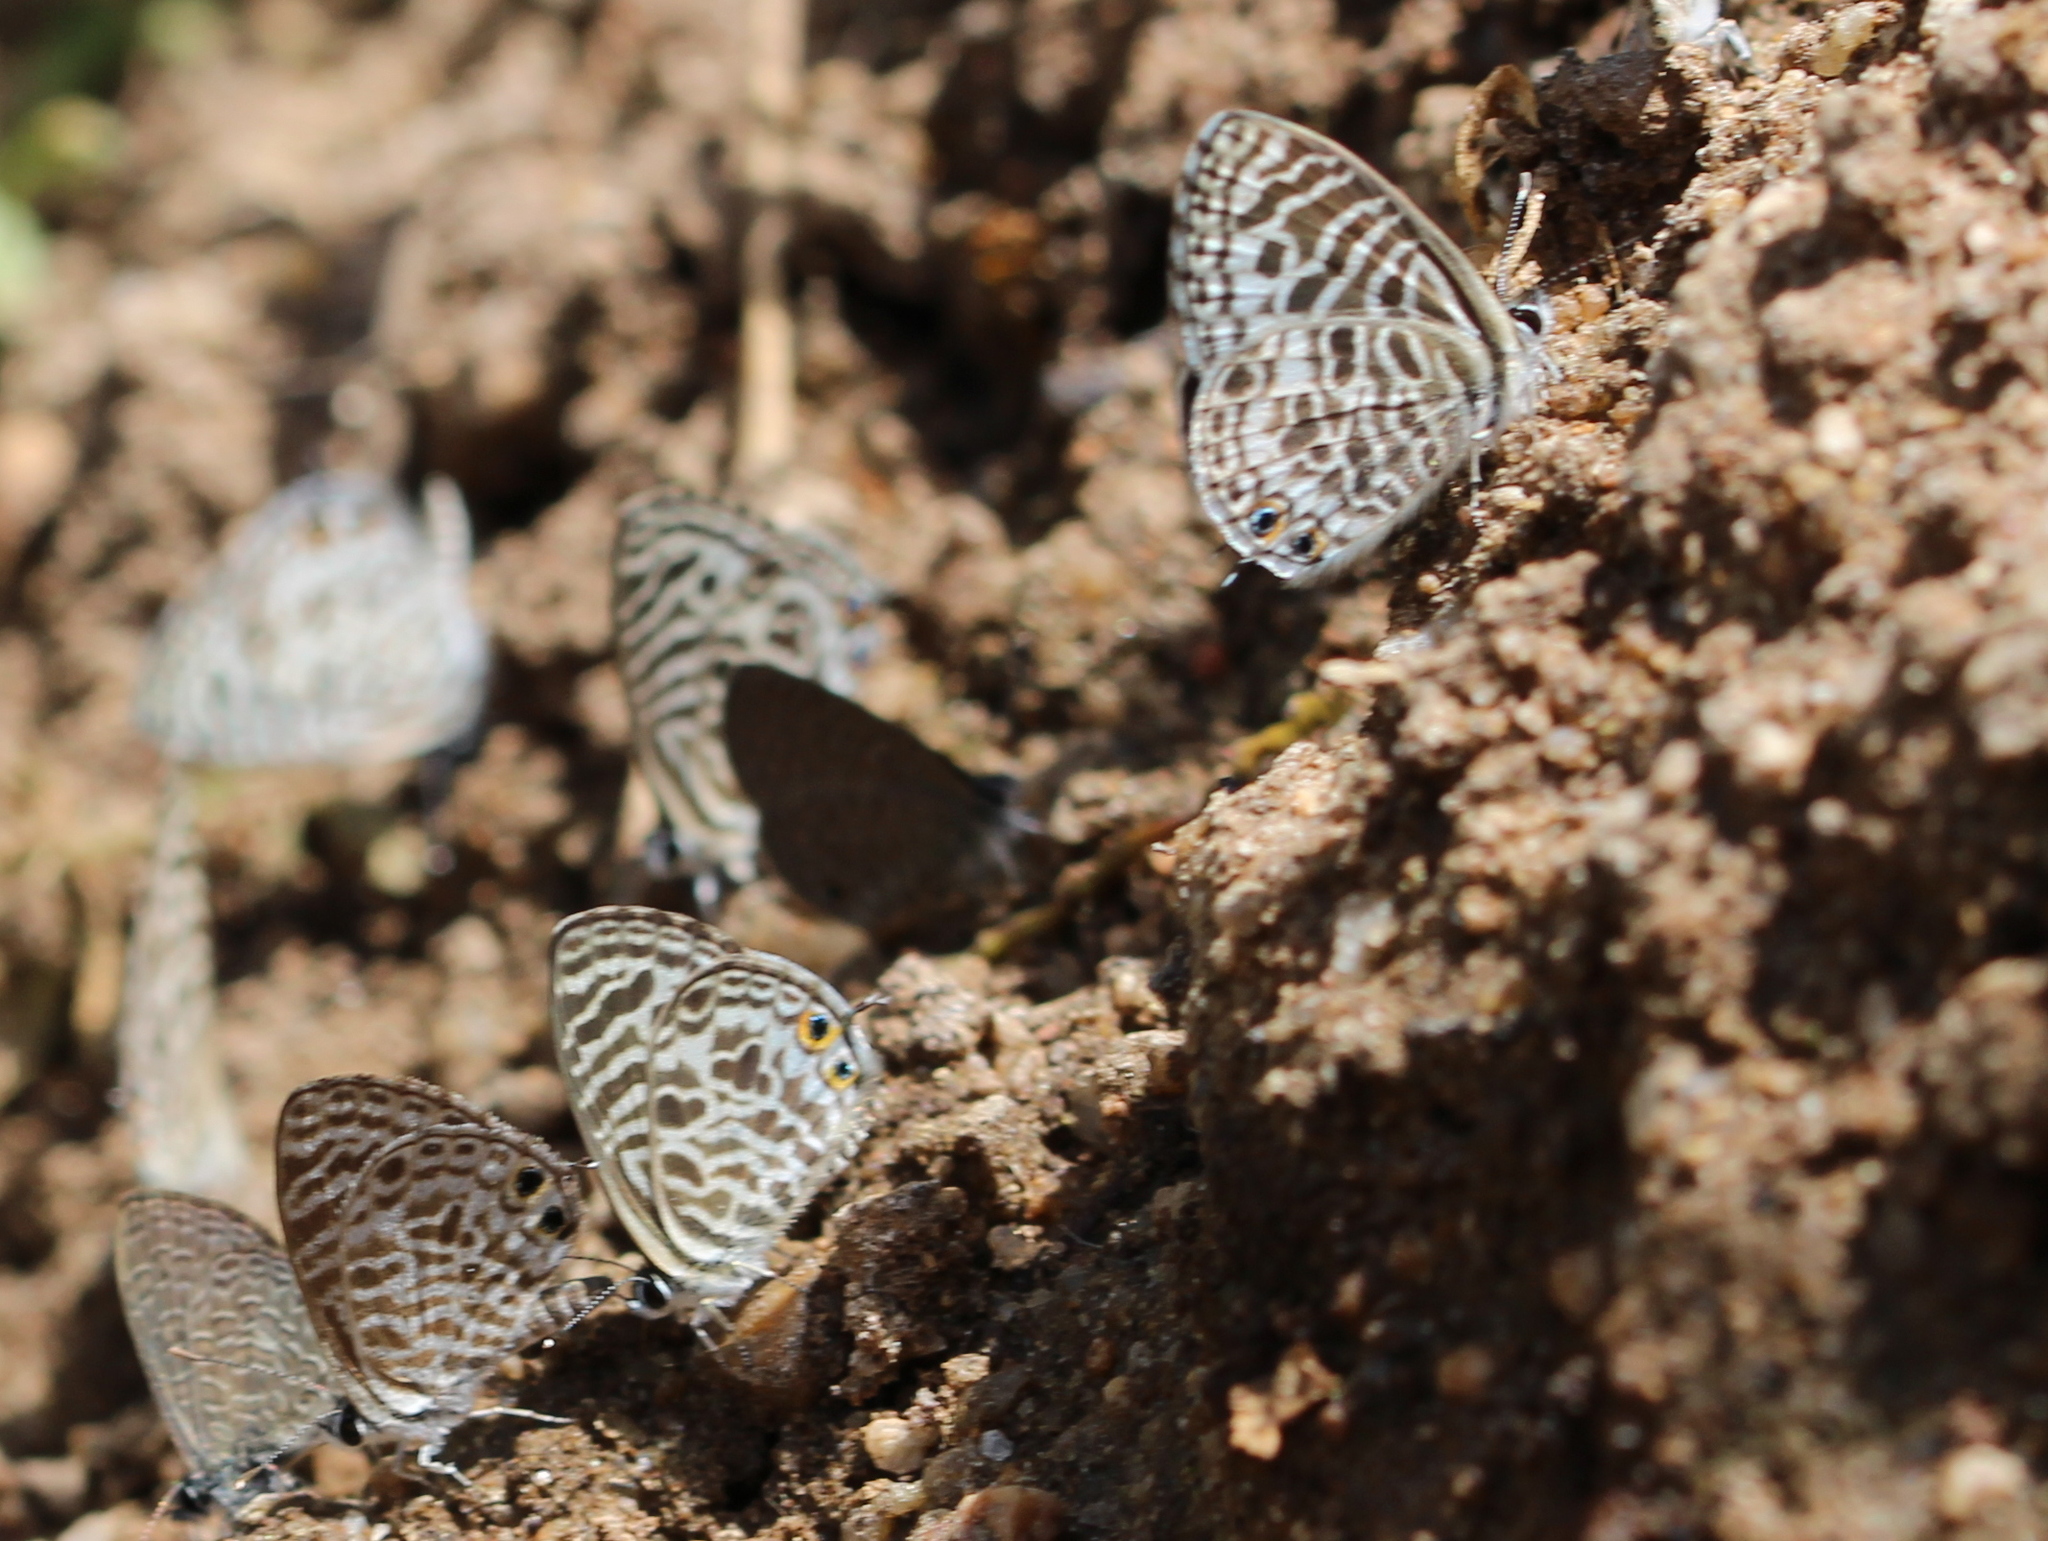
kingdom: Animalia
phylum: Arthropoda
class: Insecta
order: Lepidoptera
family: Lycaenidae
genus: Leptotes
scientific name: Leptotes plinius
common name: Zebra blue
